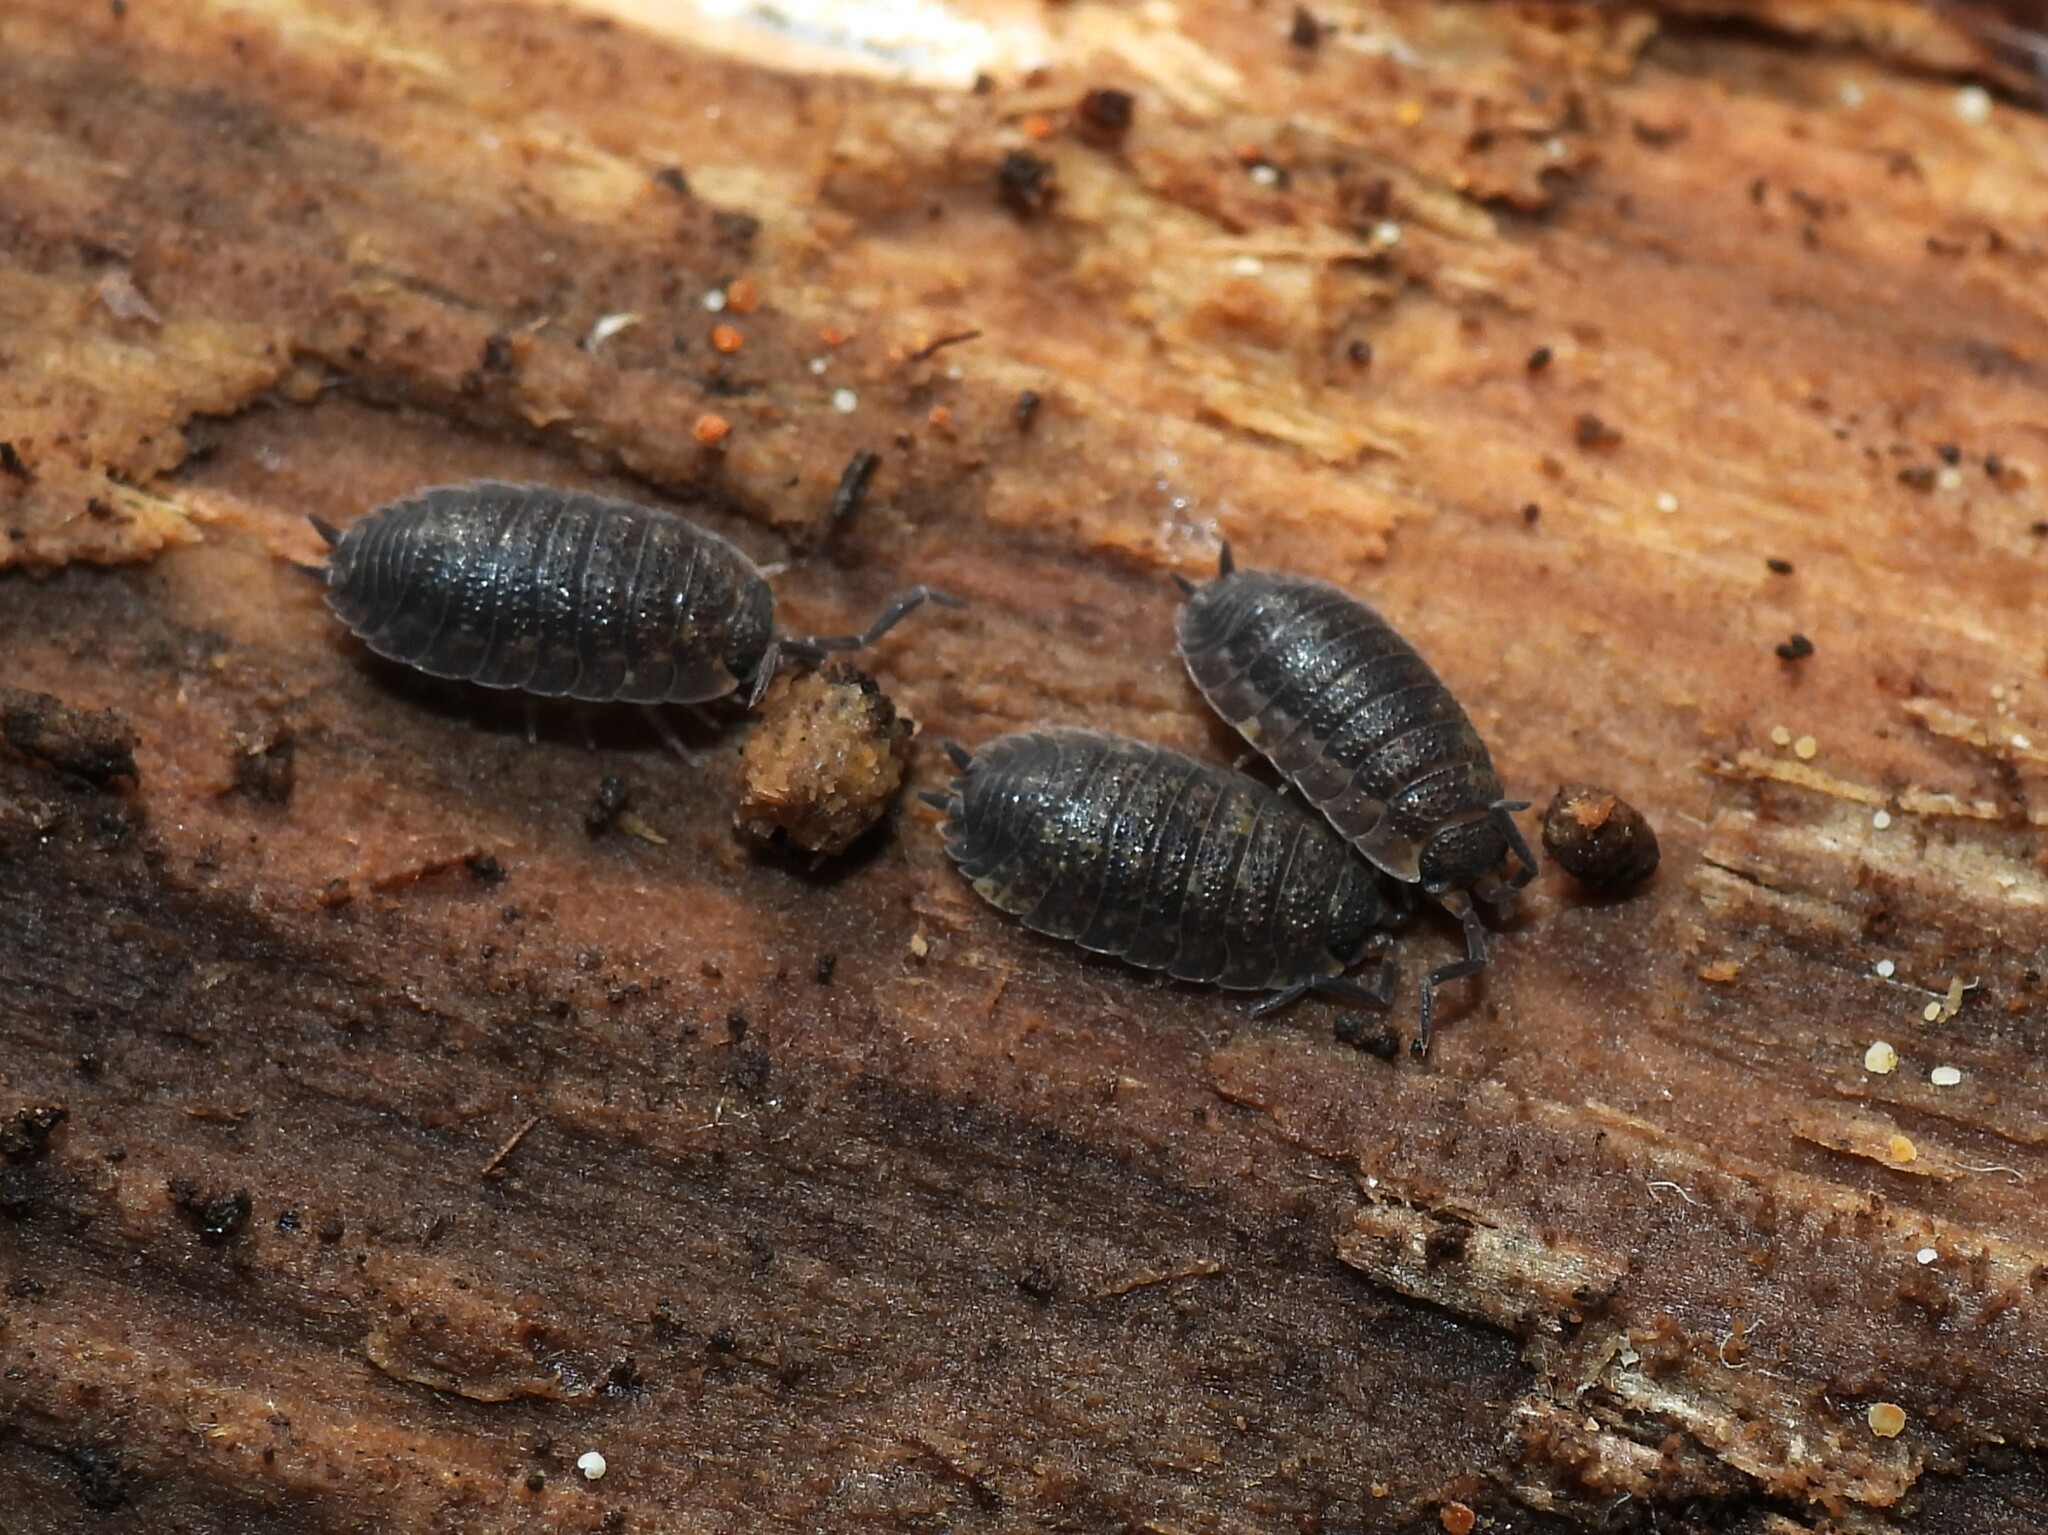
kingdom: Animalia
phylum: Arthropoda
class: Malacostraca
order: Isopoda
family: Porcellionidae
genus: Porcellio
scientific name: Porcellio scaber
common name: Common rough woodlouse
